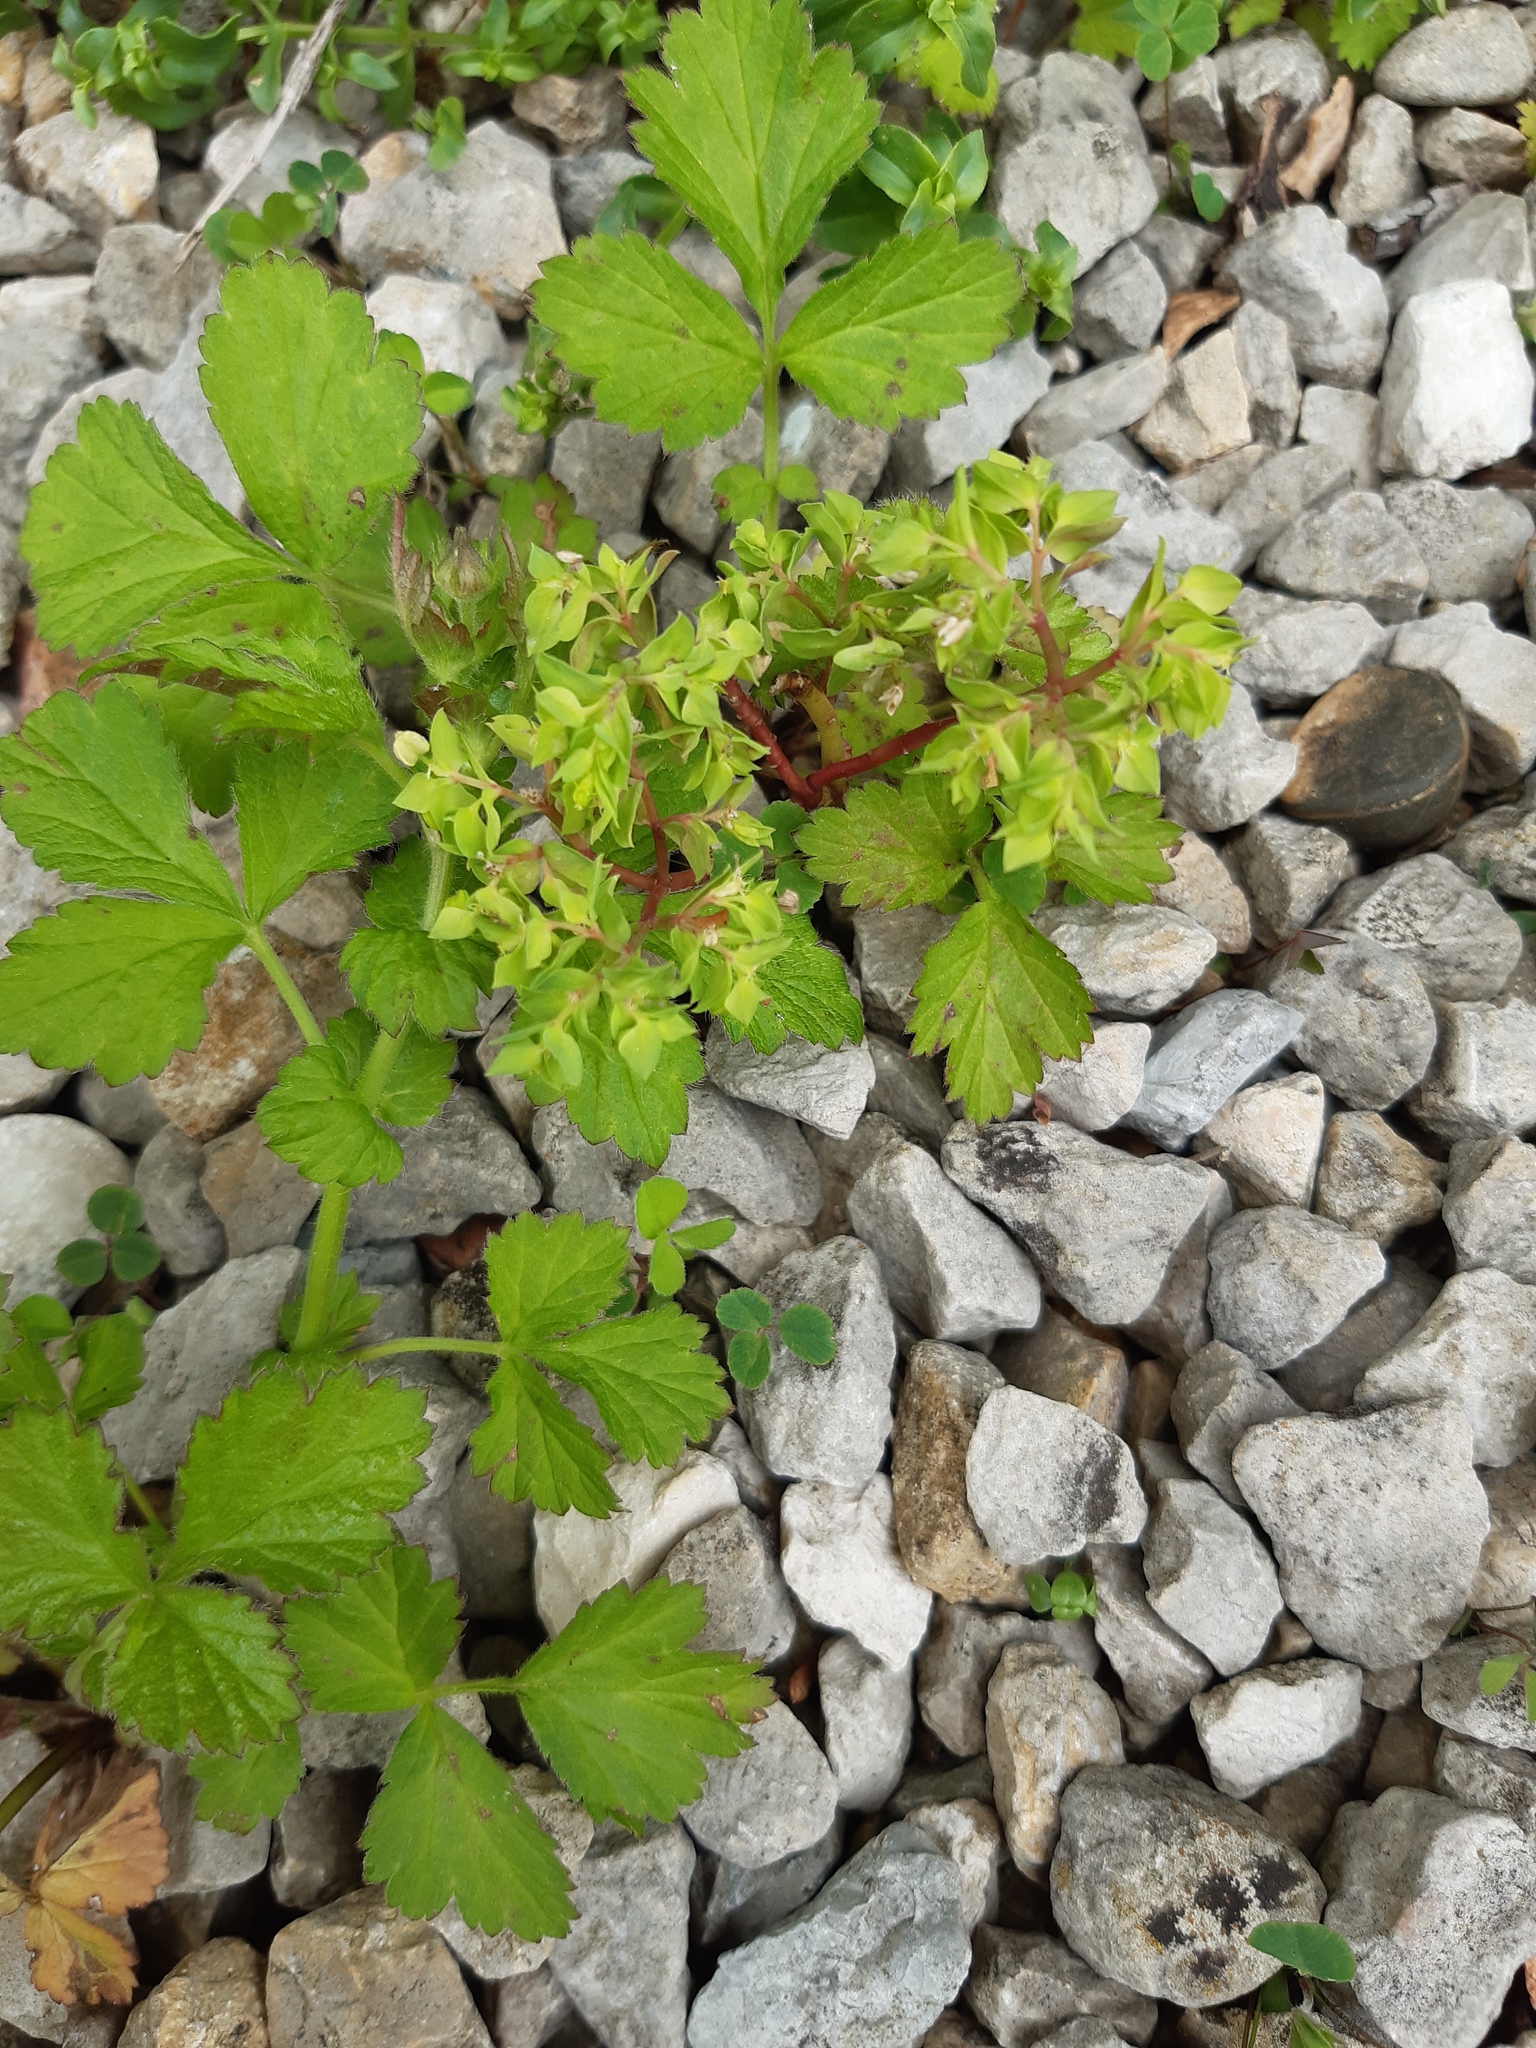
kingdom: Plantae
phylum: Tracheophyta
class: Magnoliopsida
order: Malpighiales
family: Euphorbiaceae
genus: Euphorbia
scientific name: Euphorbia peplus
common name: Petty spurge
